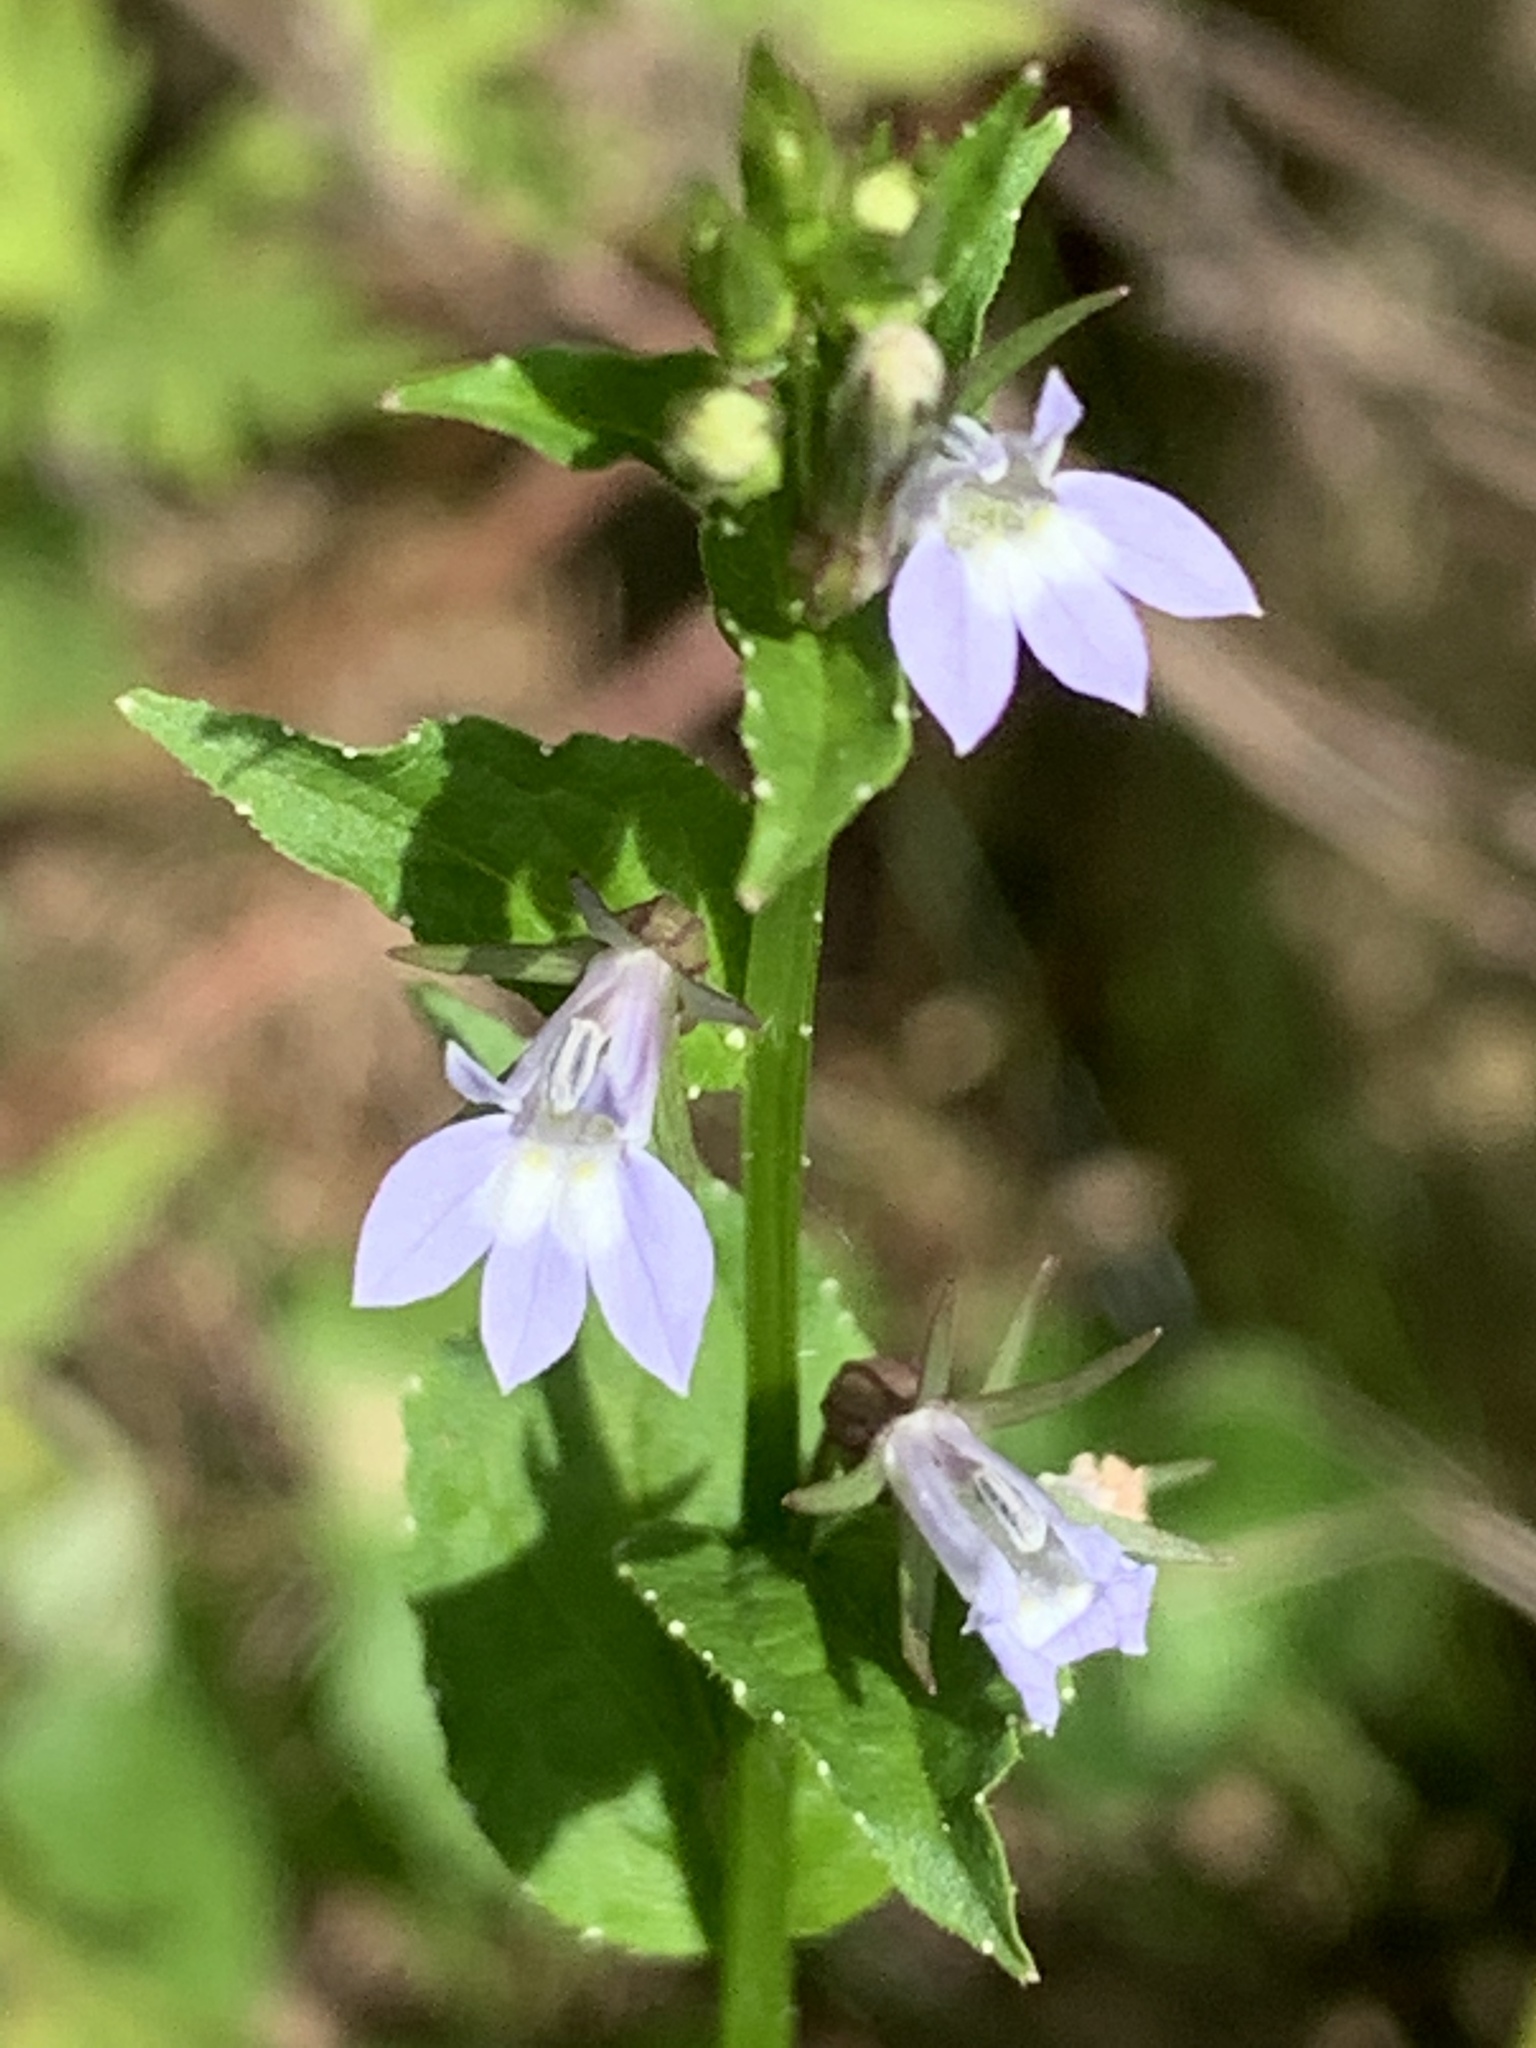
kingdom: Plantae
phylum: Tracheophyta
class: Magnoliopsida
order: Asterales
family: Campanulaceae
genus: Lobelia
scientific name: Lobelia inflata
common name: Indian tobacco
